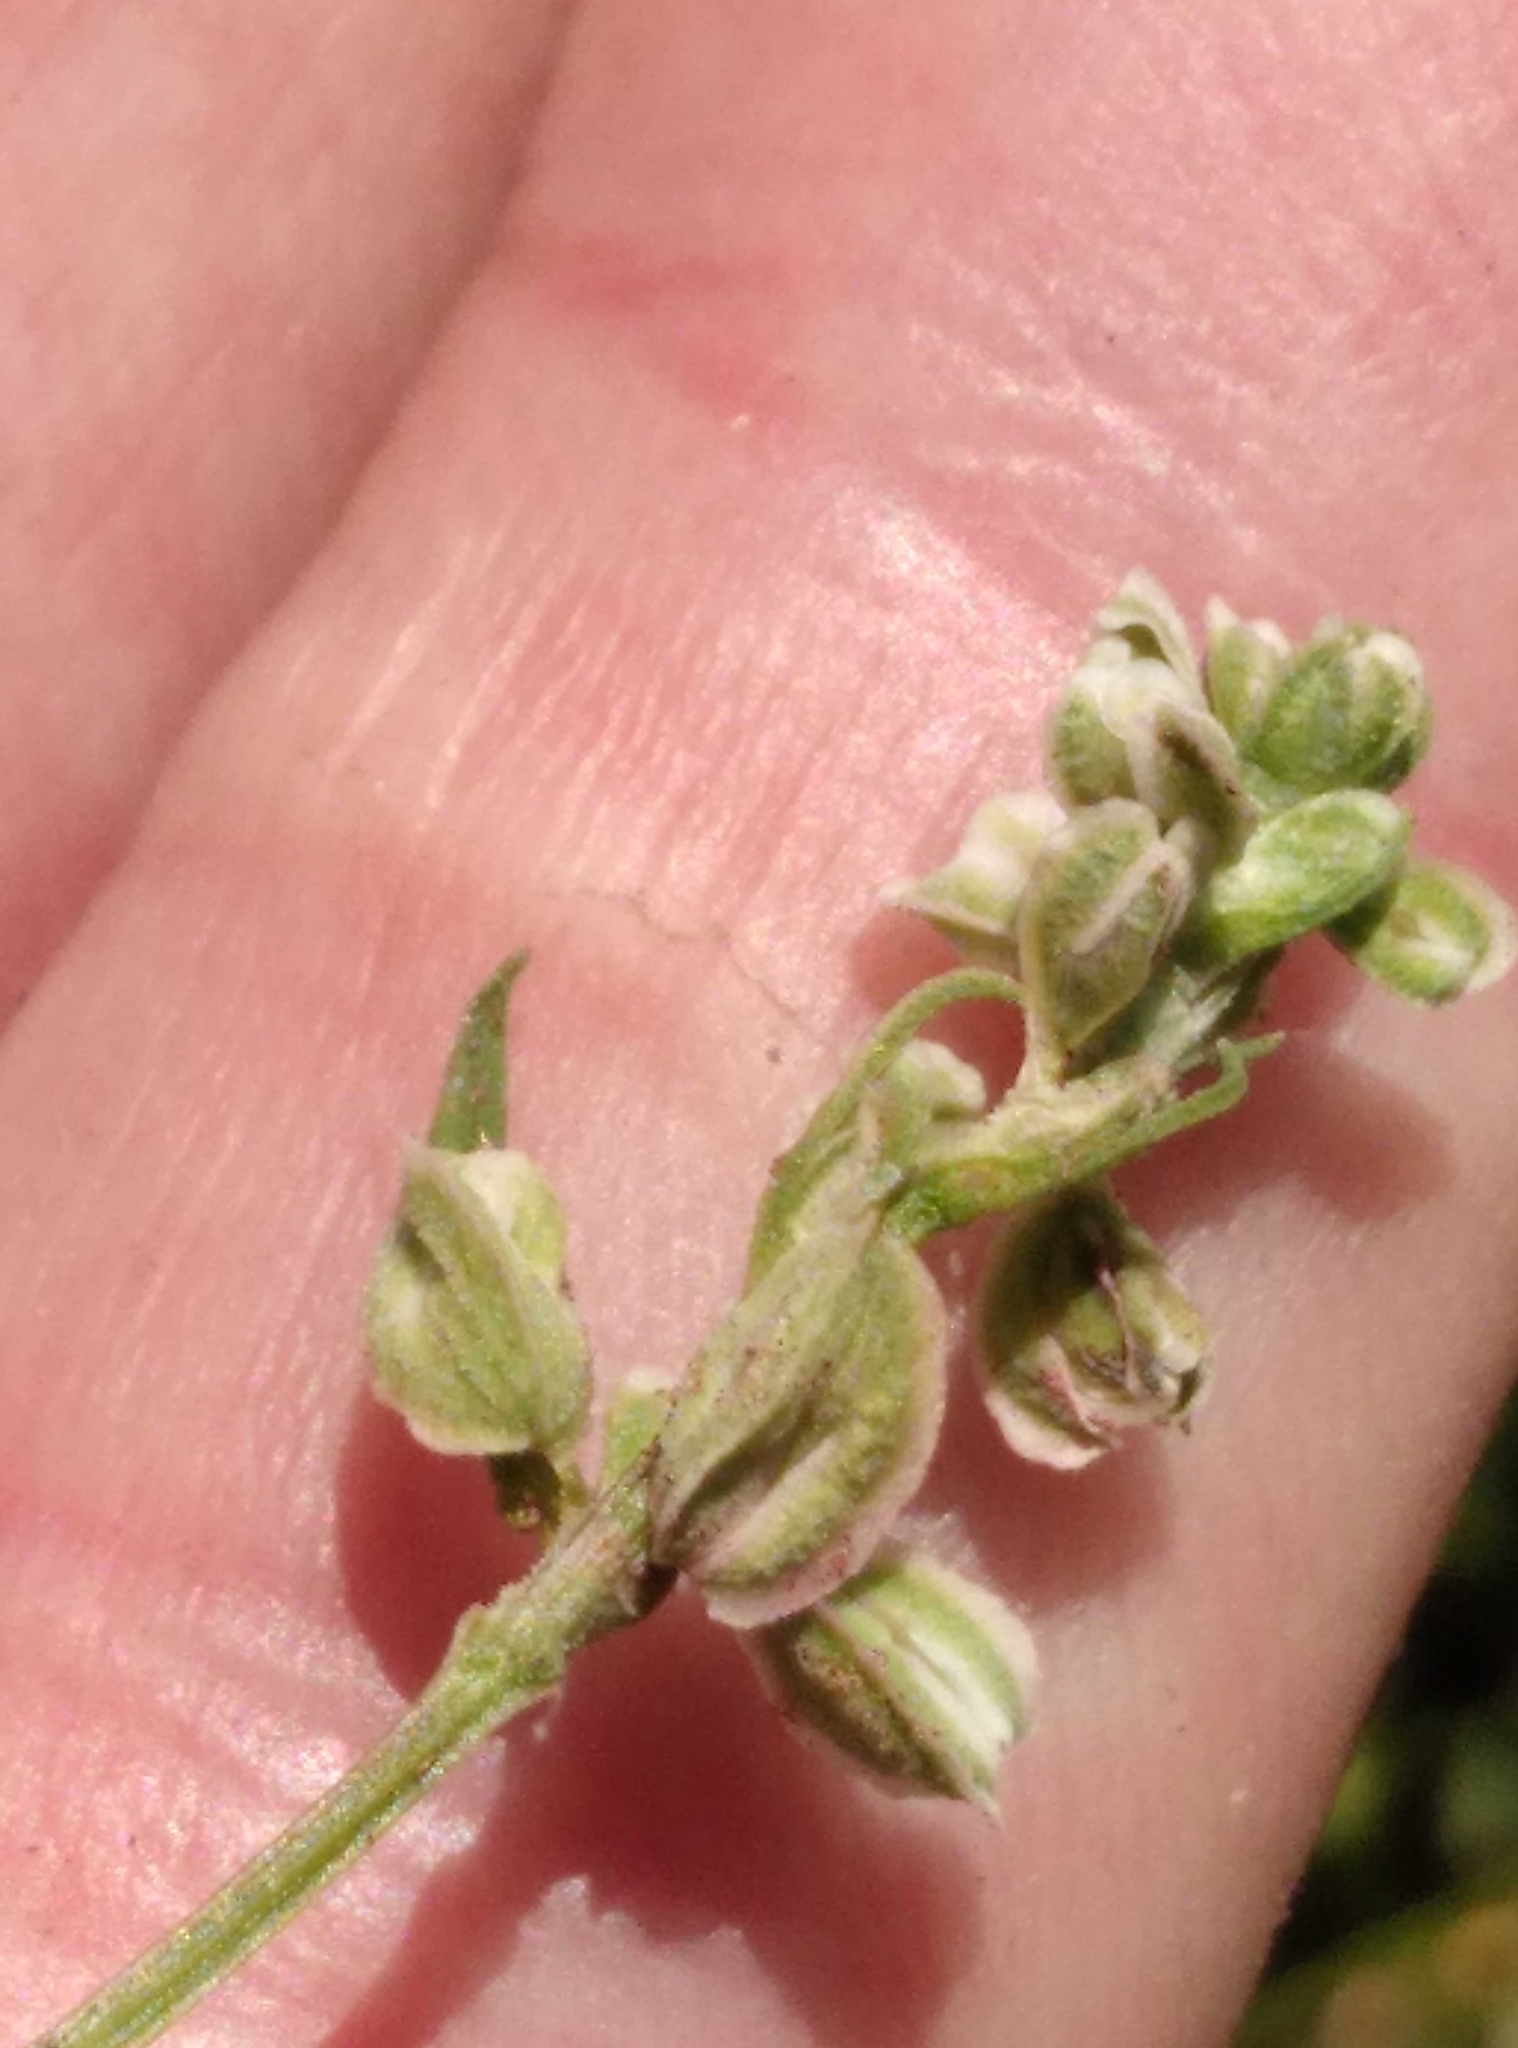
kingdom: Plantae
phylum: Tracheophyta
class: Magnoliopsida
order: Caryophyllales
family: Polygonaceae
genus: Fallopia
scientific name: Fallopia convolvulus
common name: Black bindweed
